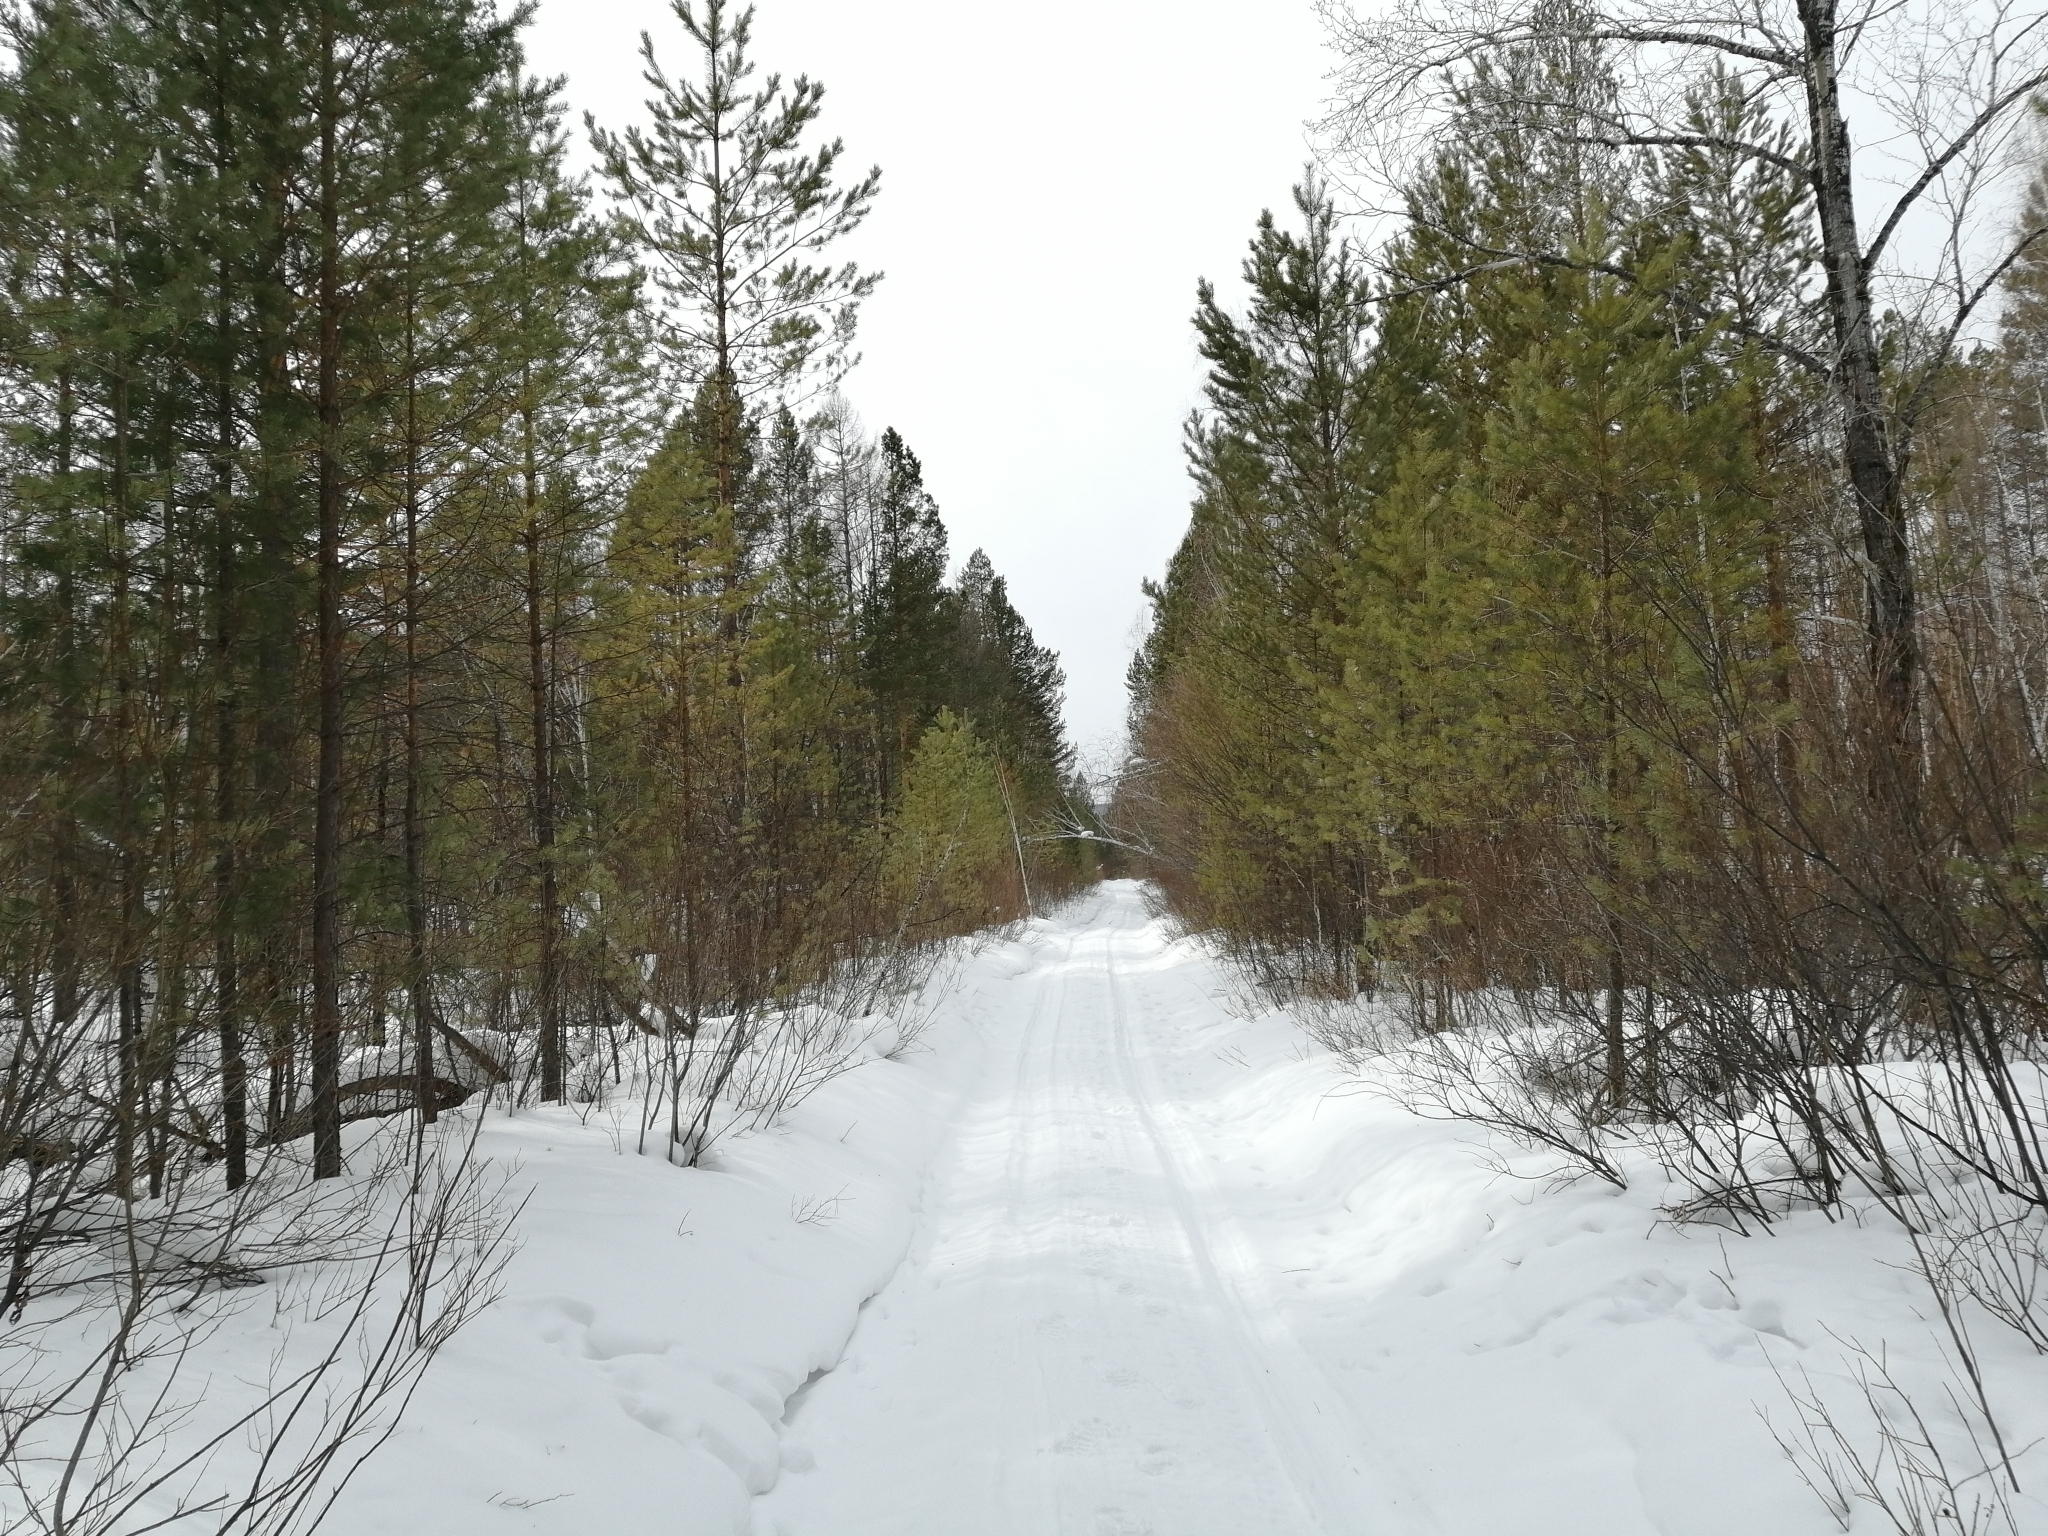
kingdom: Plantae
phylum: Tracheophyta
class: Pinopsida
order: Pinales
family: Pinaceae
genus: Pinus
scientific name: Pinus sylvestris
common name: Scots pine
